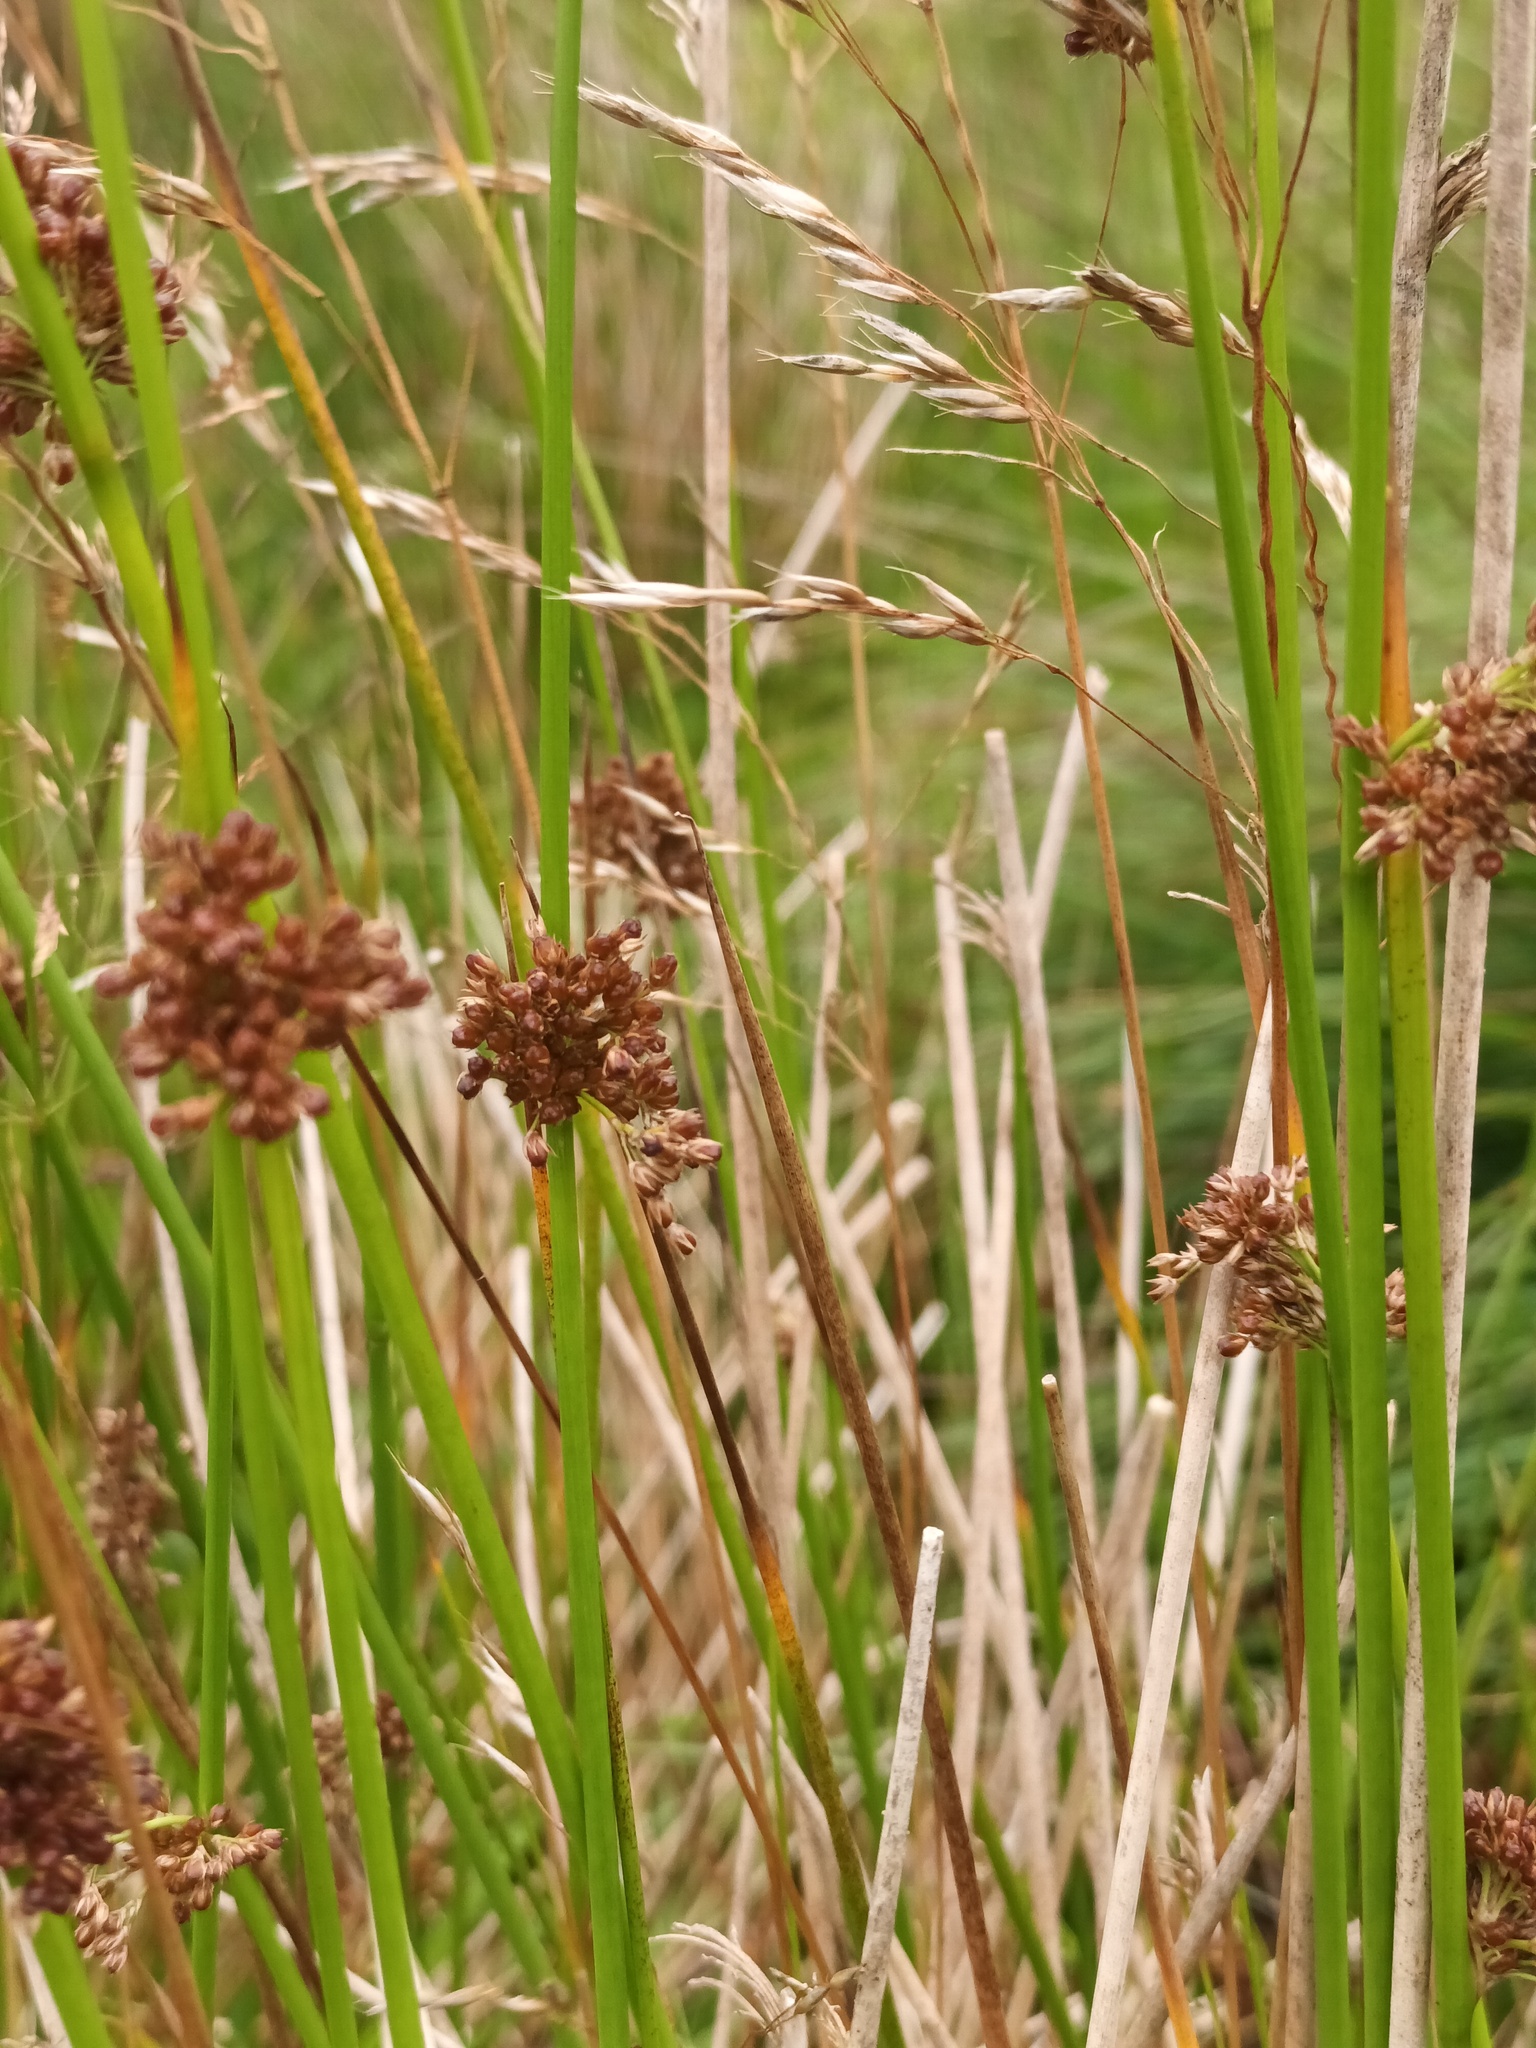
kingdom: Plantae
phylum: Tracheophyta
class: Liliopsida
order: Poales
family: Juncaceae
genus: Juncus
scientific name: Juncus effusus
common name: Soft rush
